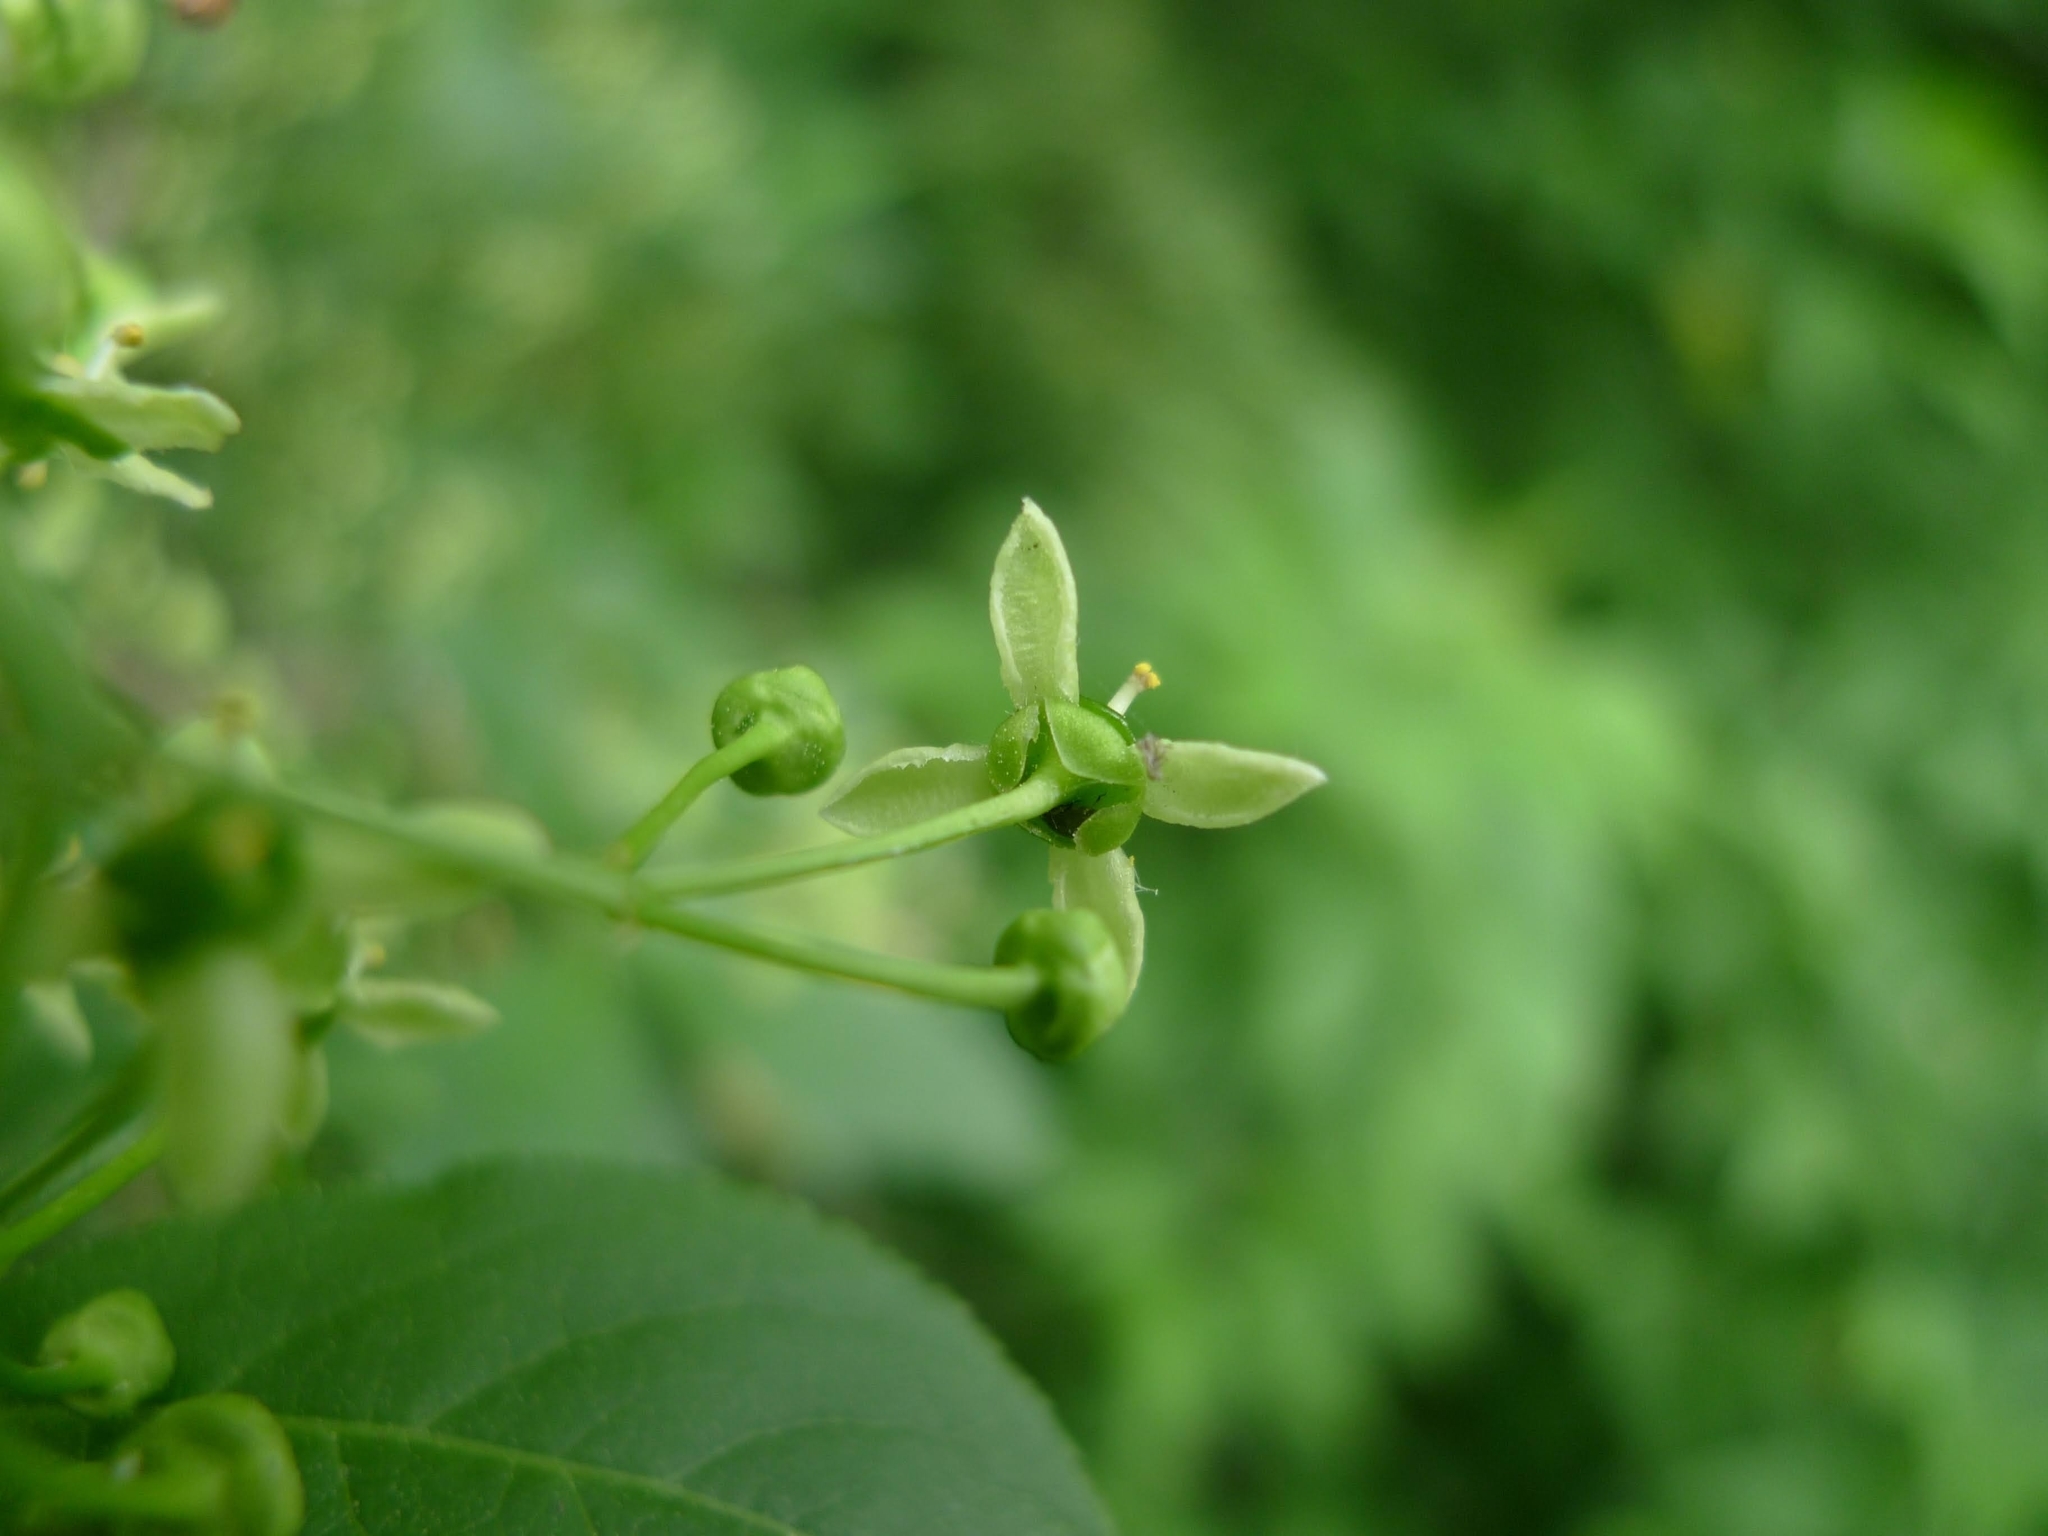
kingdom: Plantae
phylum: Tracheophyta
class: Magnoliopsida
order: Celastrales
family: Celastraceae
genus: Euonymus
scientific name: Euonymus europaeus
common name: Spindle
